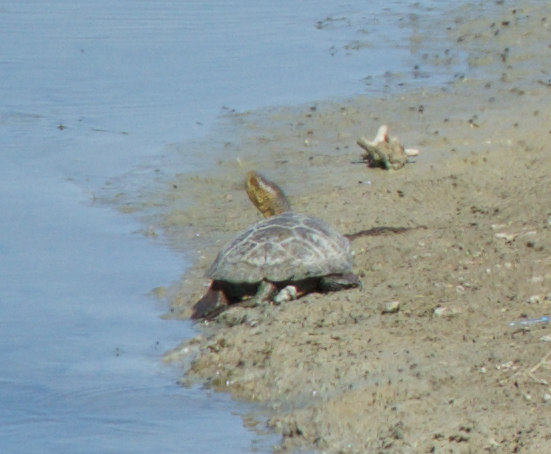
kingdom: Animalia
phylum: Chordata
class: Testudines
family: Emydidae
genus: Actinemys
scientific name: Actinemys marmorata
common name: Western pond turtle
